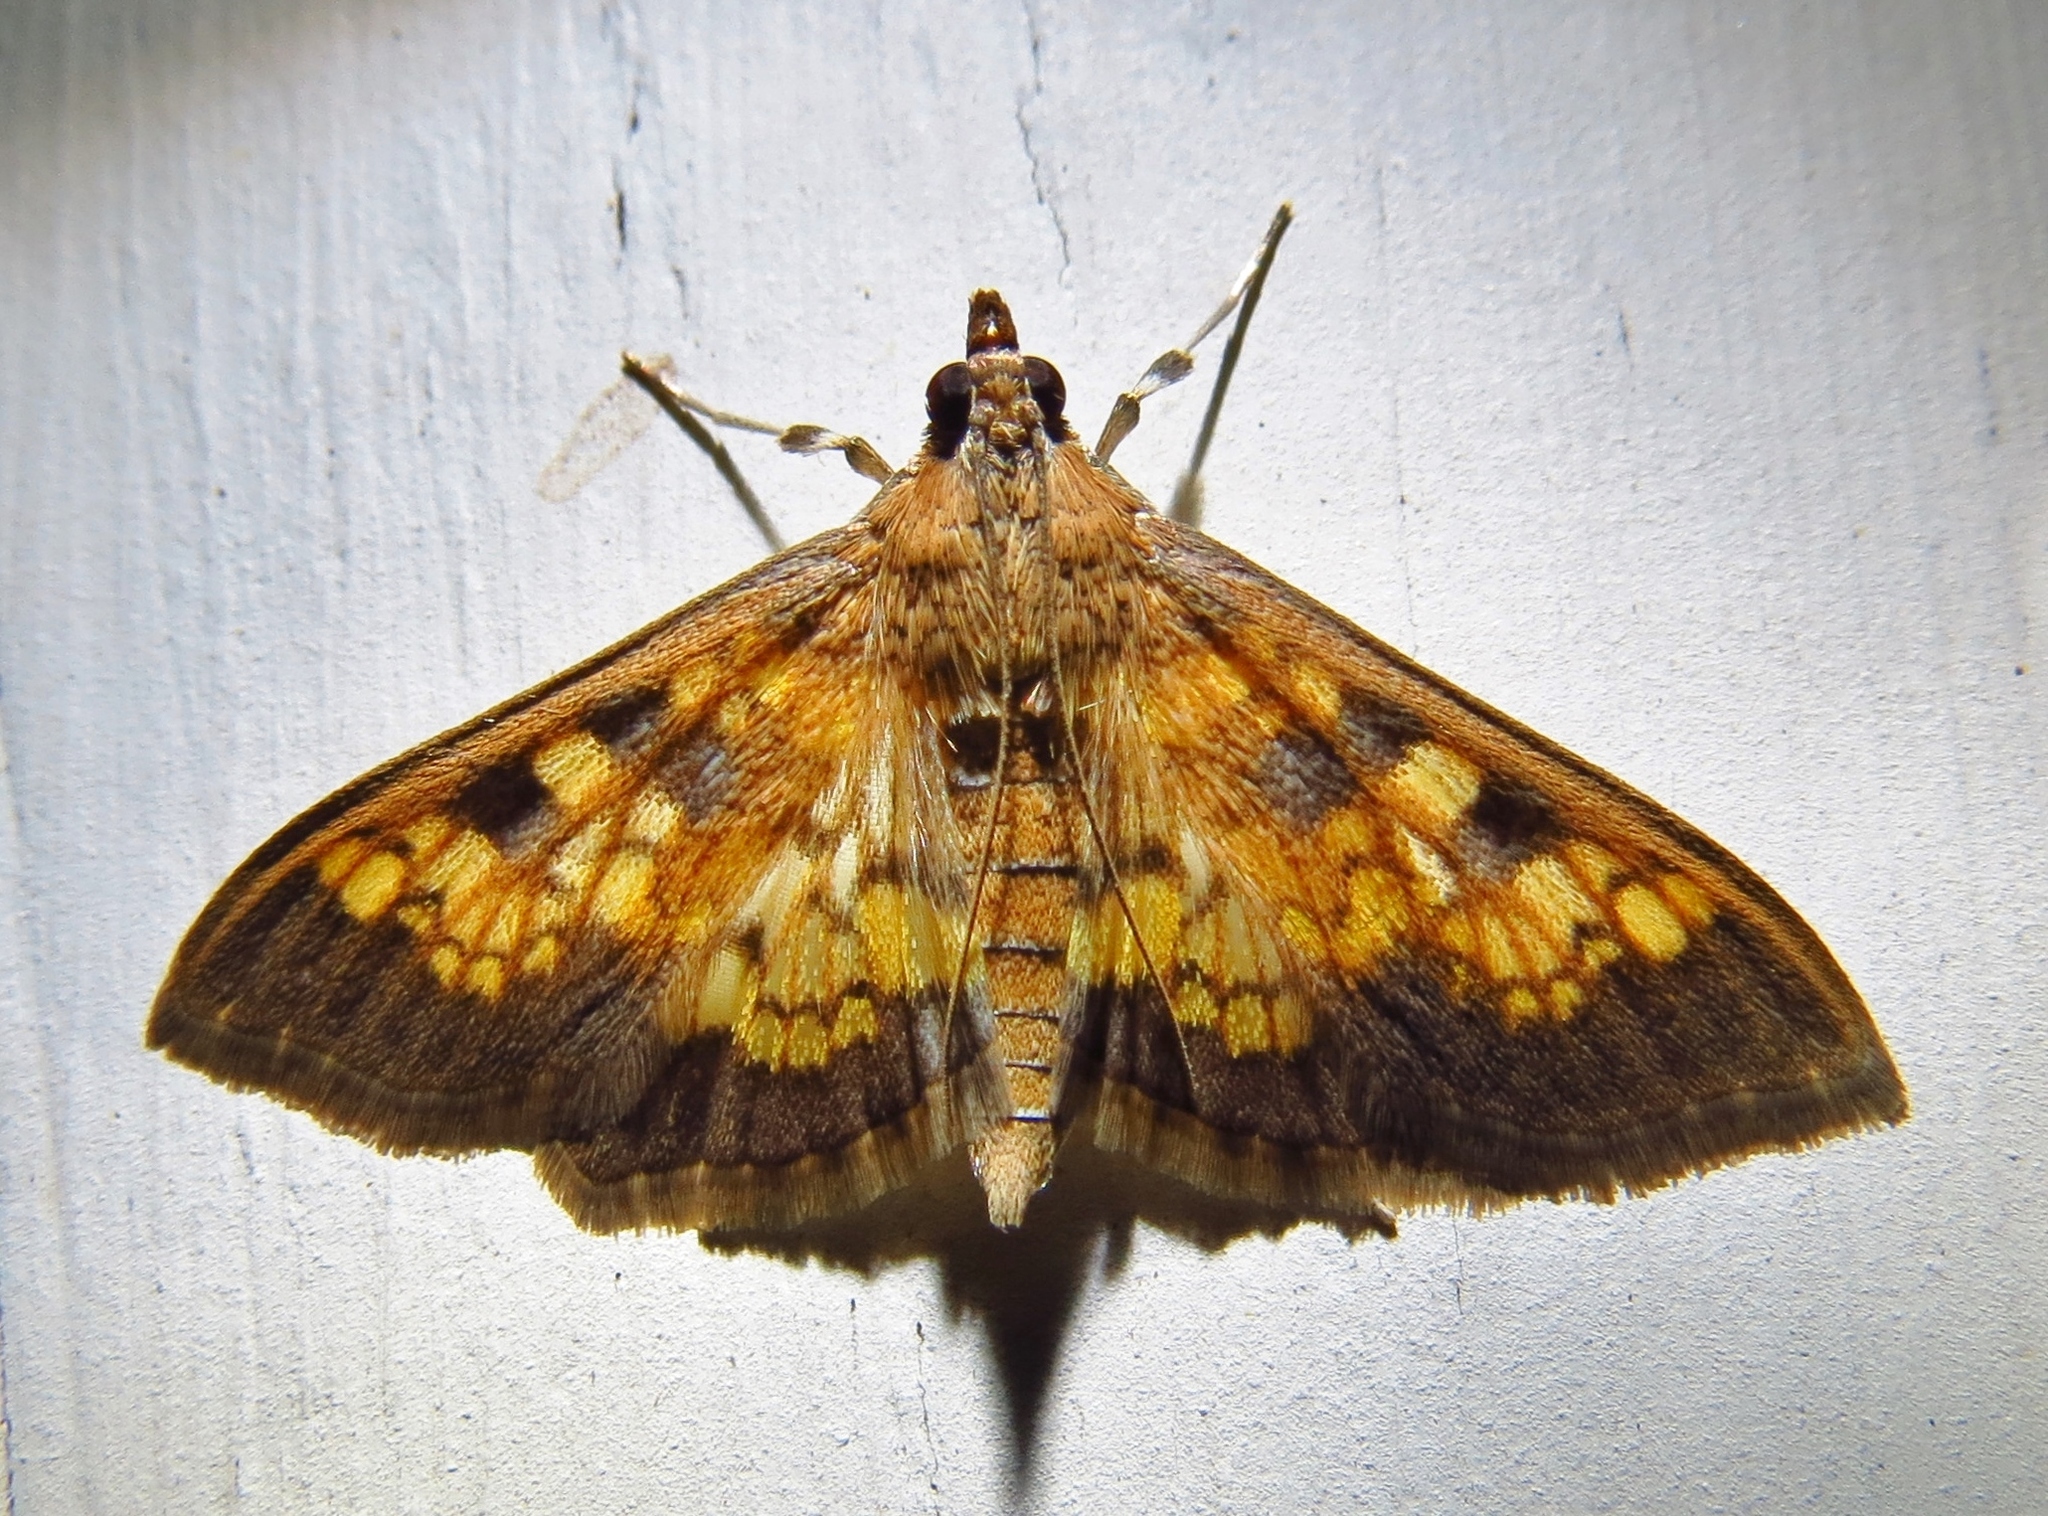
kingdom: Animalia
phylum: Arthropoda
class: Insecta
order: Lepidoptera
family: Crambidae
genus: Cryptographis
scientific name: Cryptographis elealis
